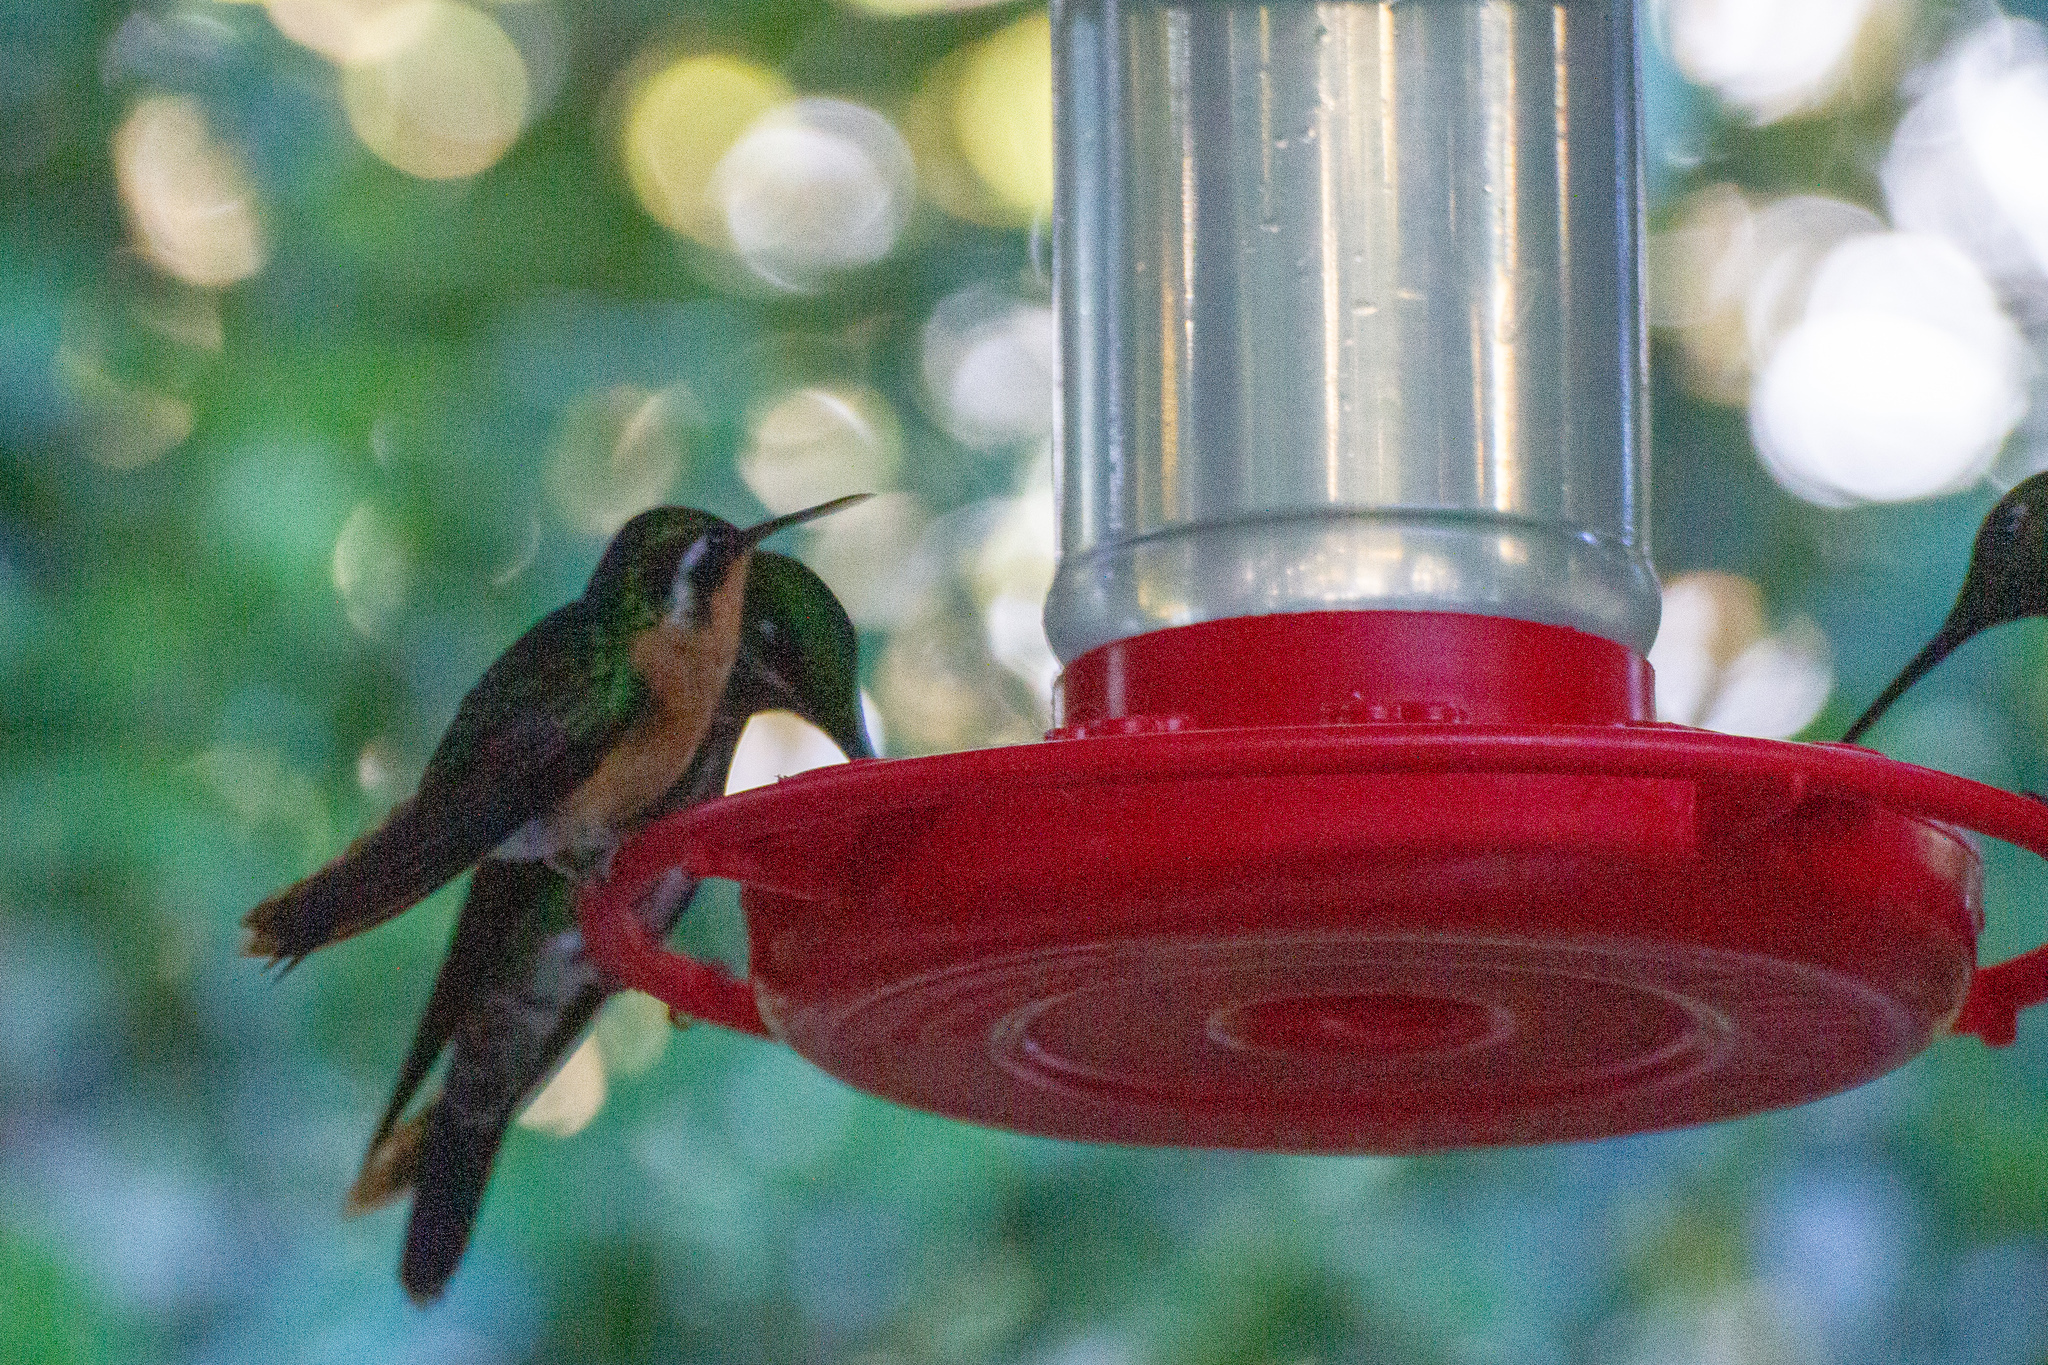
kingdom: Animalia
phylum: Chordata
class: Aves
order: Apodiformes
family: Trochilidae
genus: Lampornis
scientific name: Lampornis calolaemus
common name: Purple-throated mountain-gem
